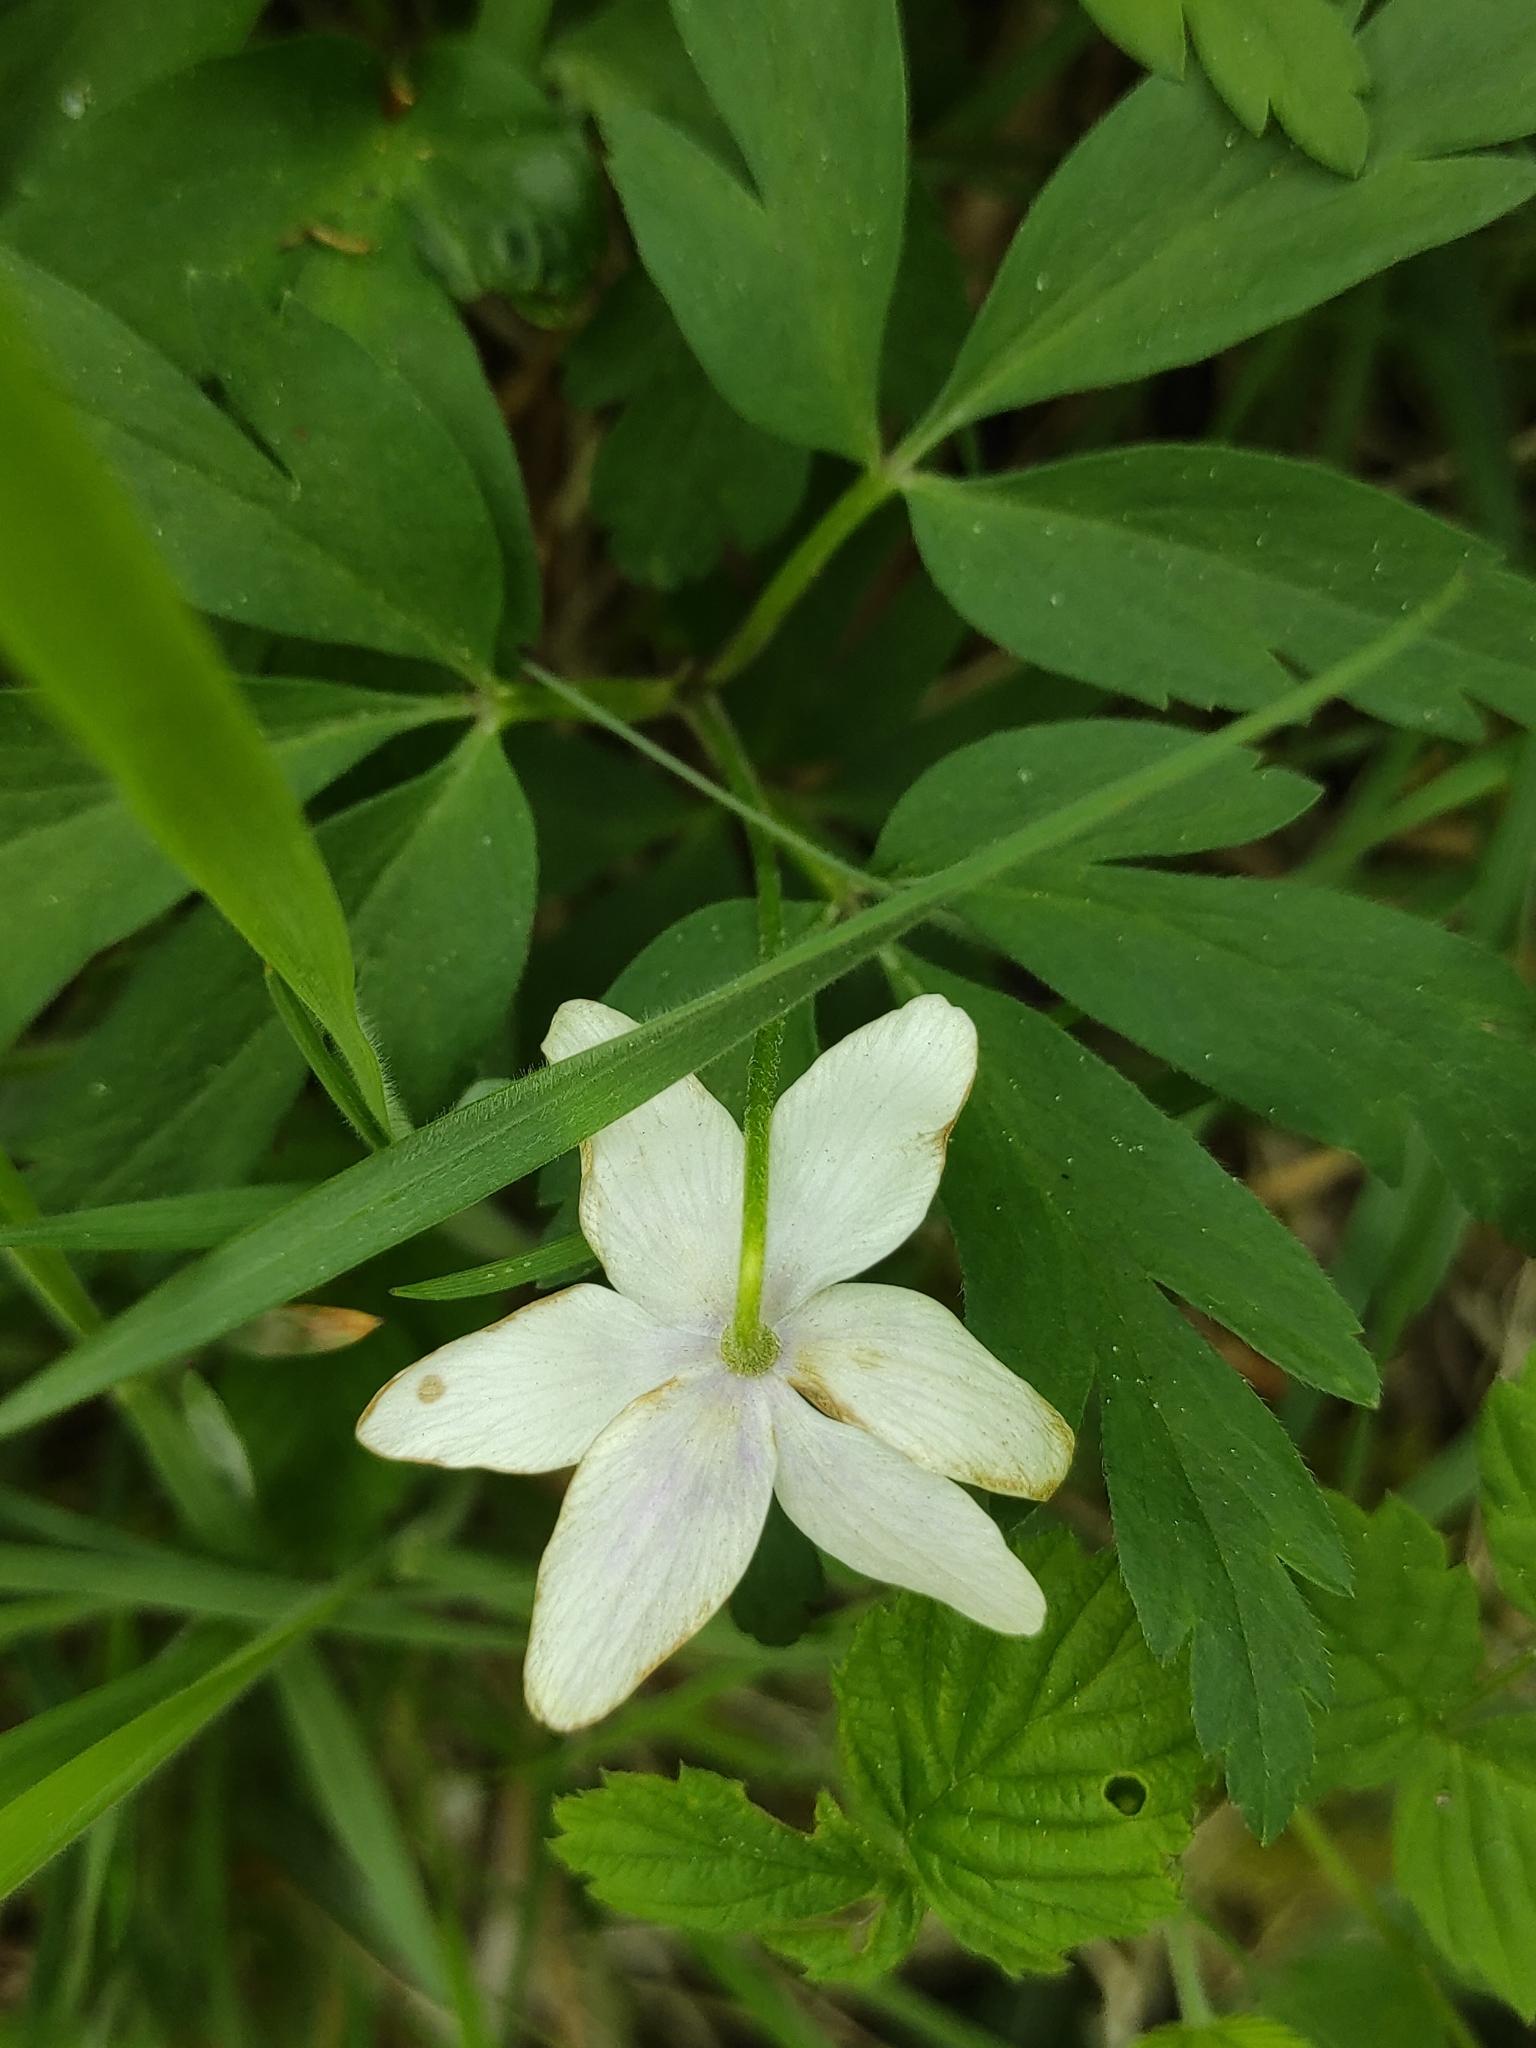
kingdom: Plantae
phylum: Tracheophyta
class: Magnoliopsida
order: Ranunculales
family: Ranunculaceae
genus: Anemone
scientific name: Anemone nemorosa
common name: Wood anemone
